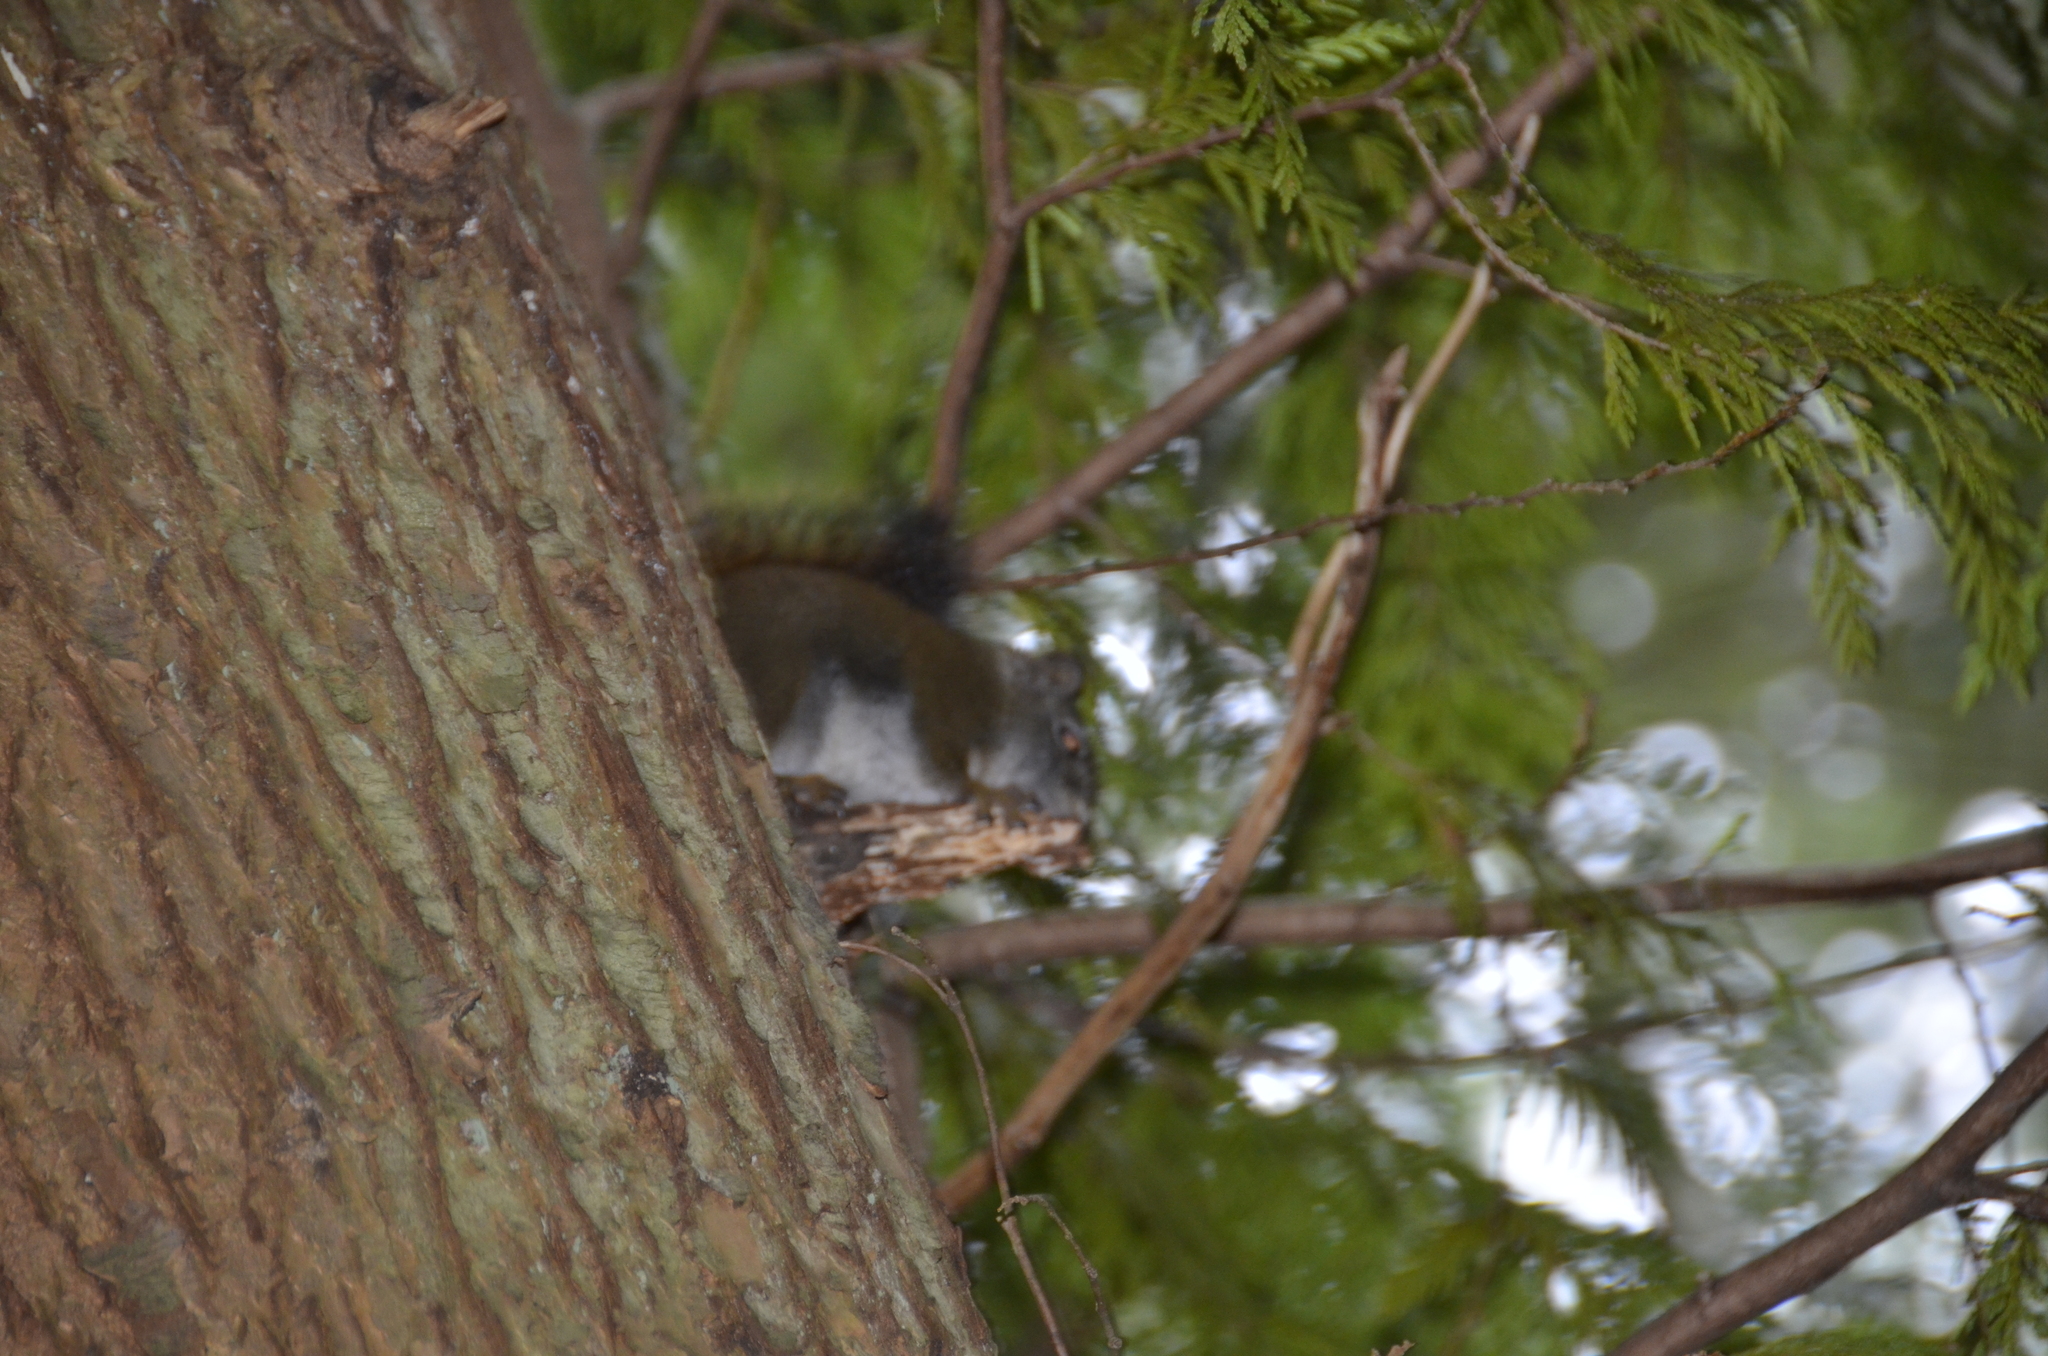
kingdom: Animalia
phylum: Chordata
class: Mammalia
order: Rodentia
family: Sciuridae
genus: Tamiasciurus
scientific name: Tamiasciurus hudsonicus
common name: Red squirrel
